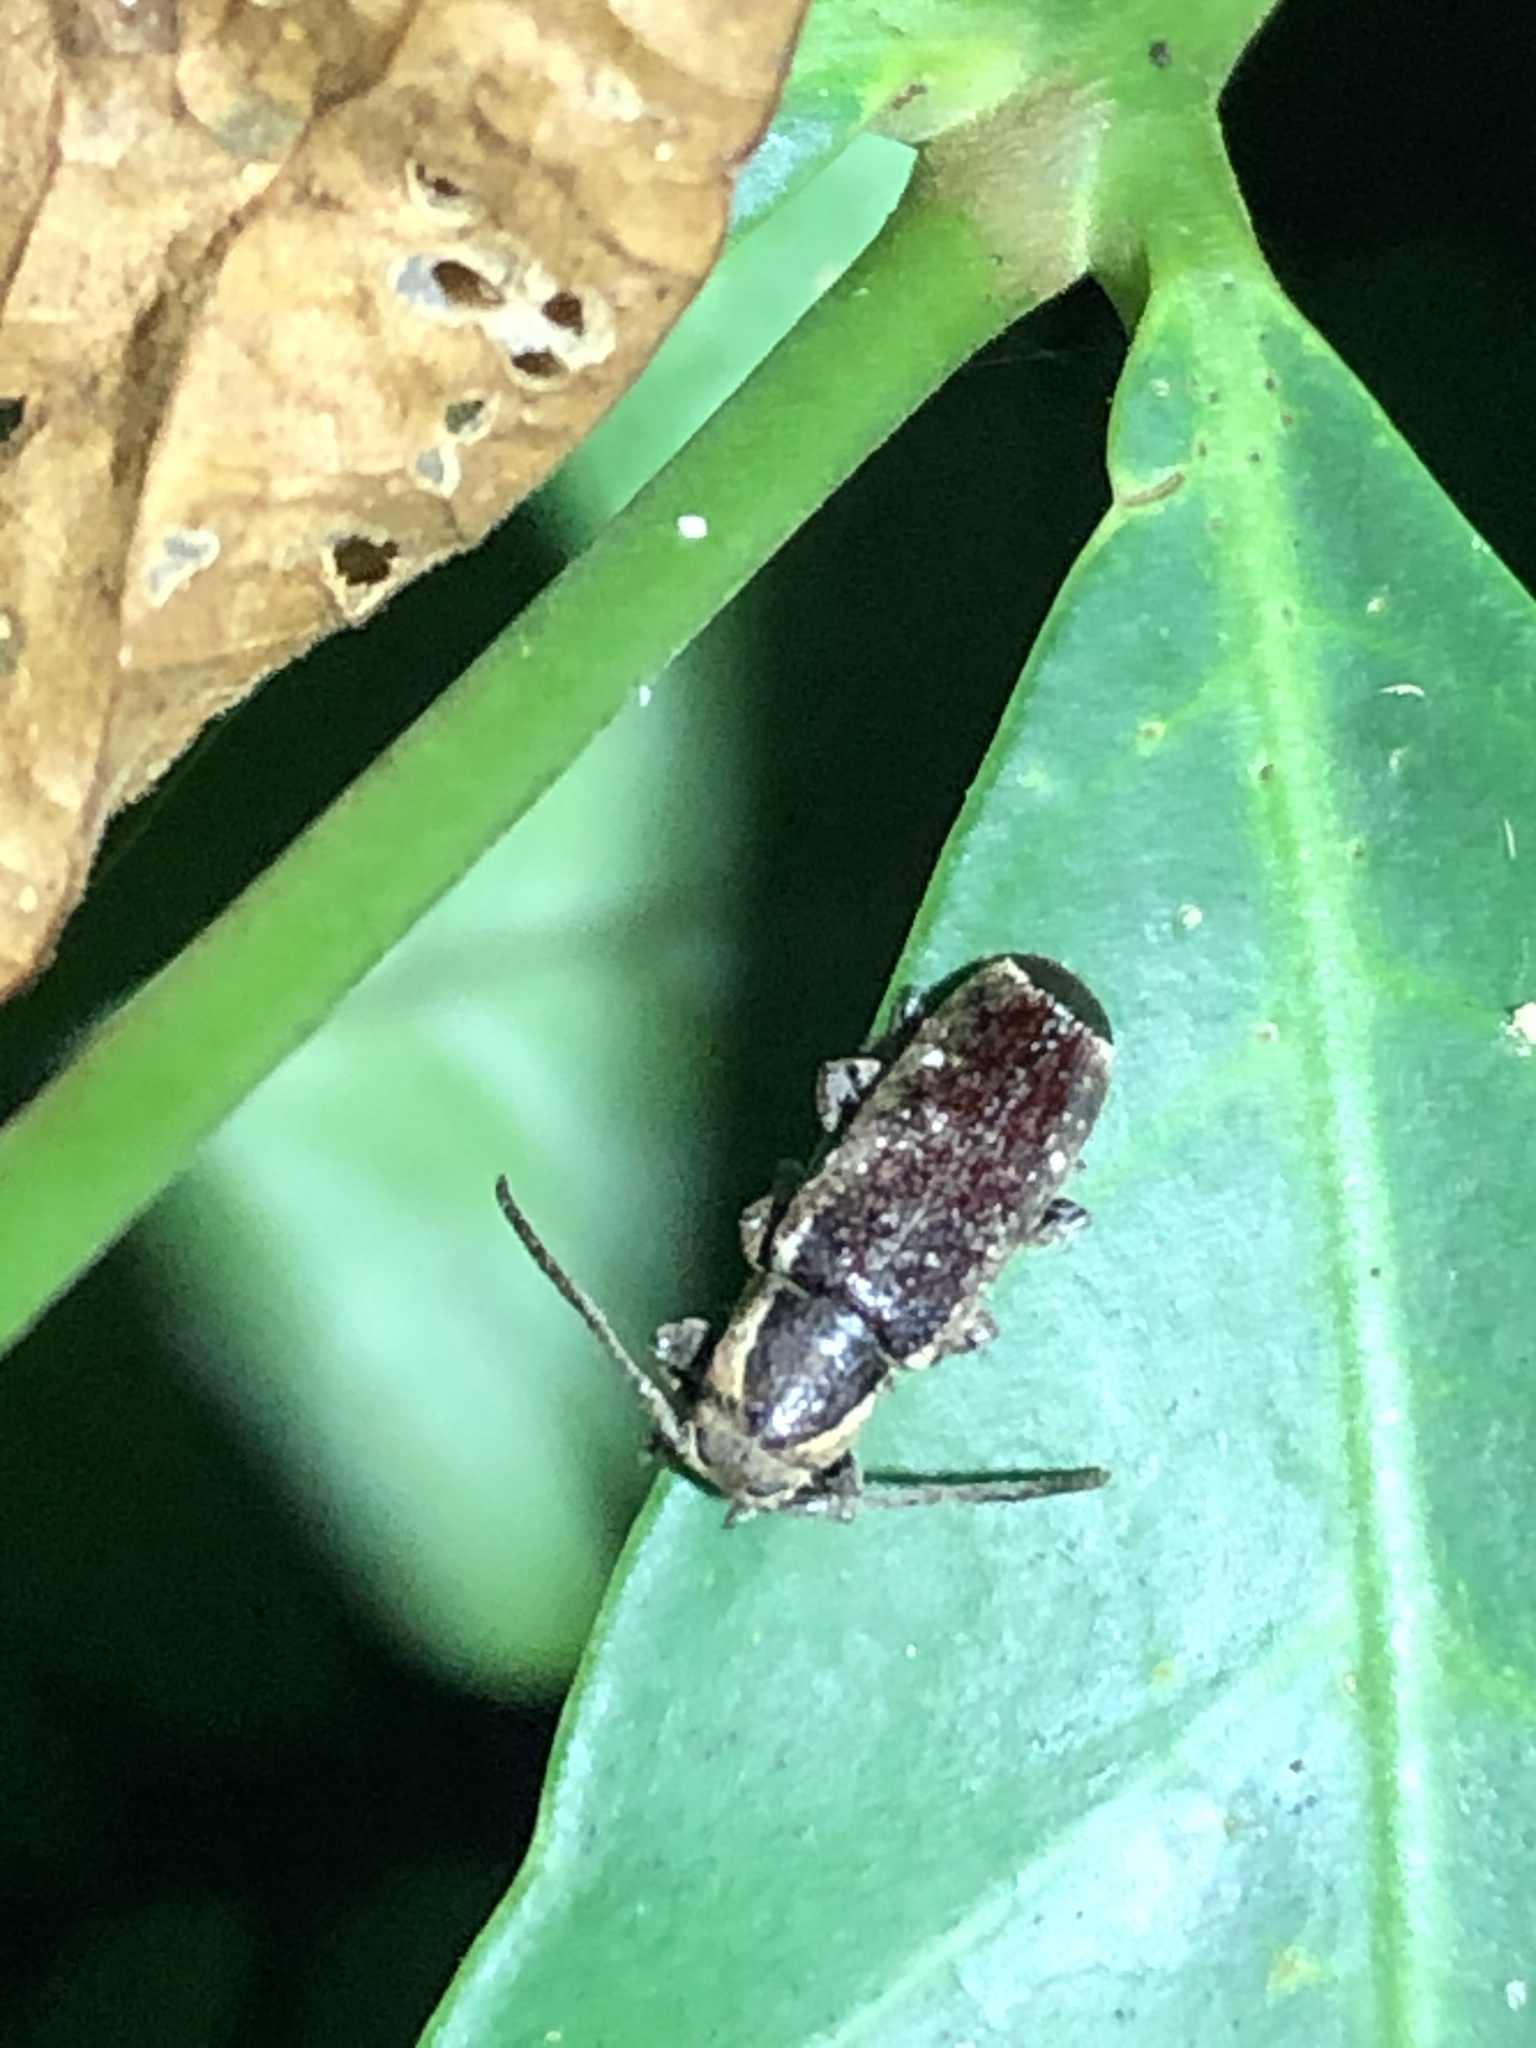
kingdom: Animalia
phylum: Arthropoda
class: Insecta
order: Coleoptera
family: Cerambycidae
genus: Adetus
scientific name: Adetus analis
